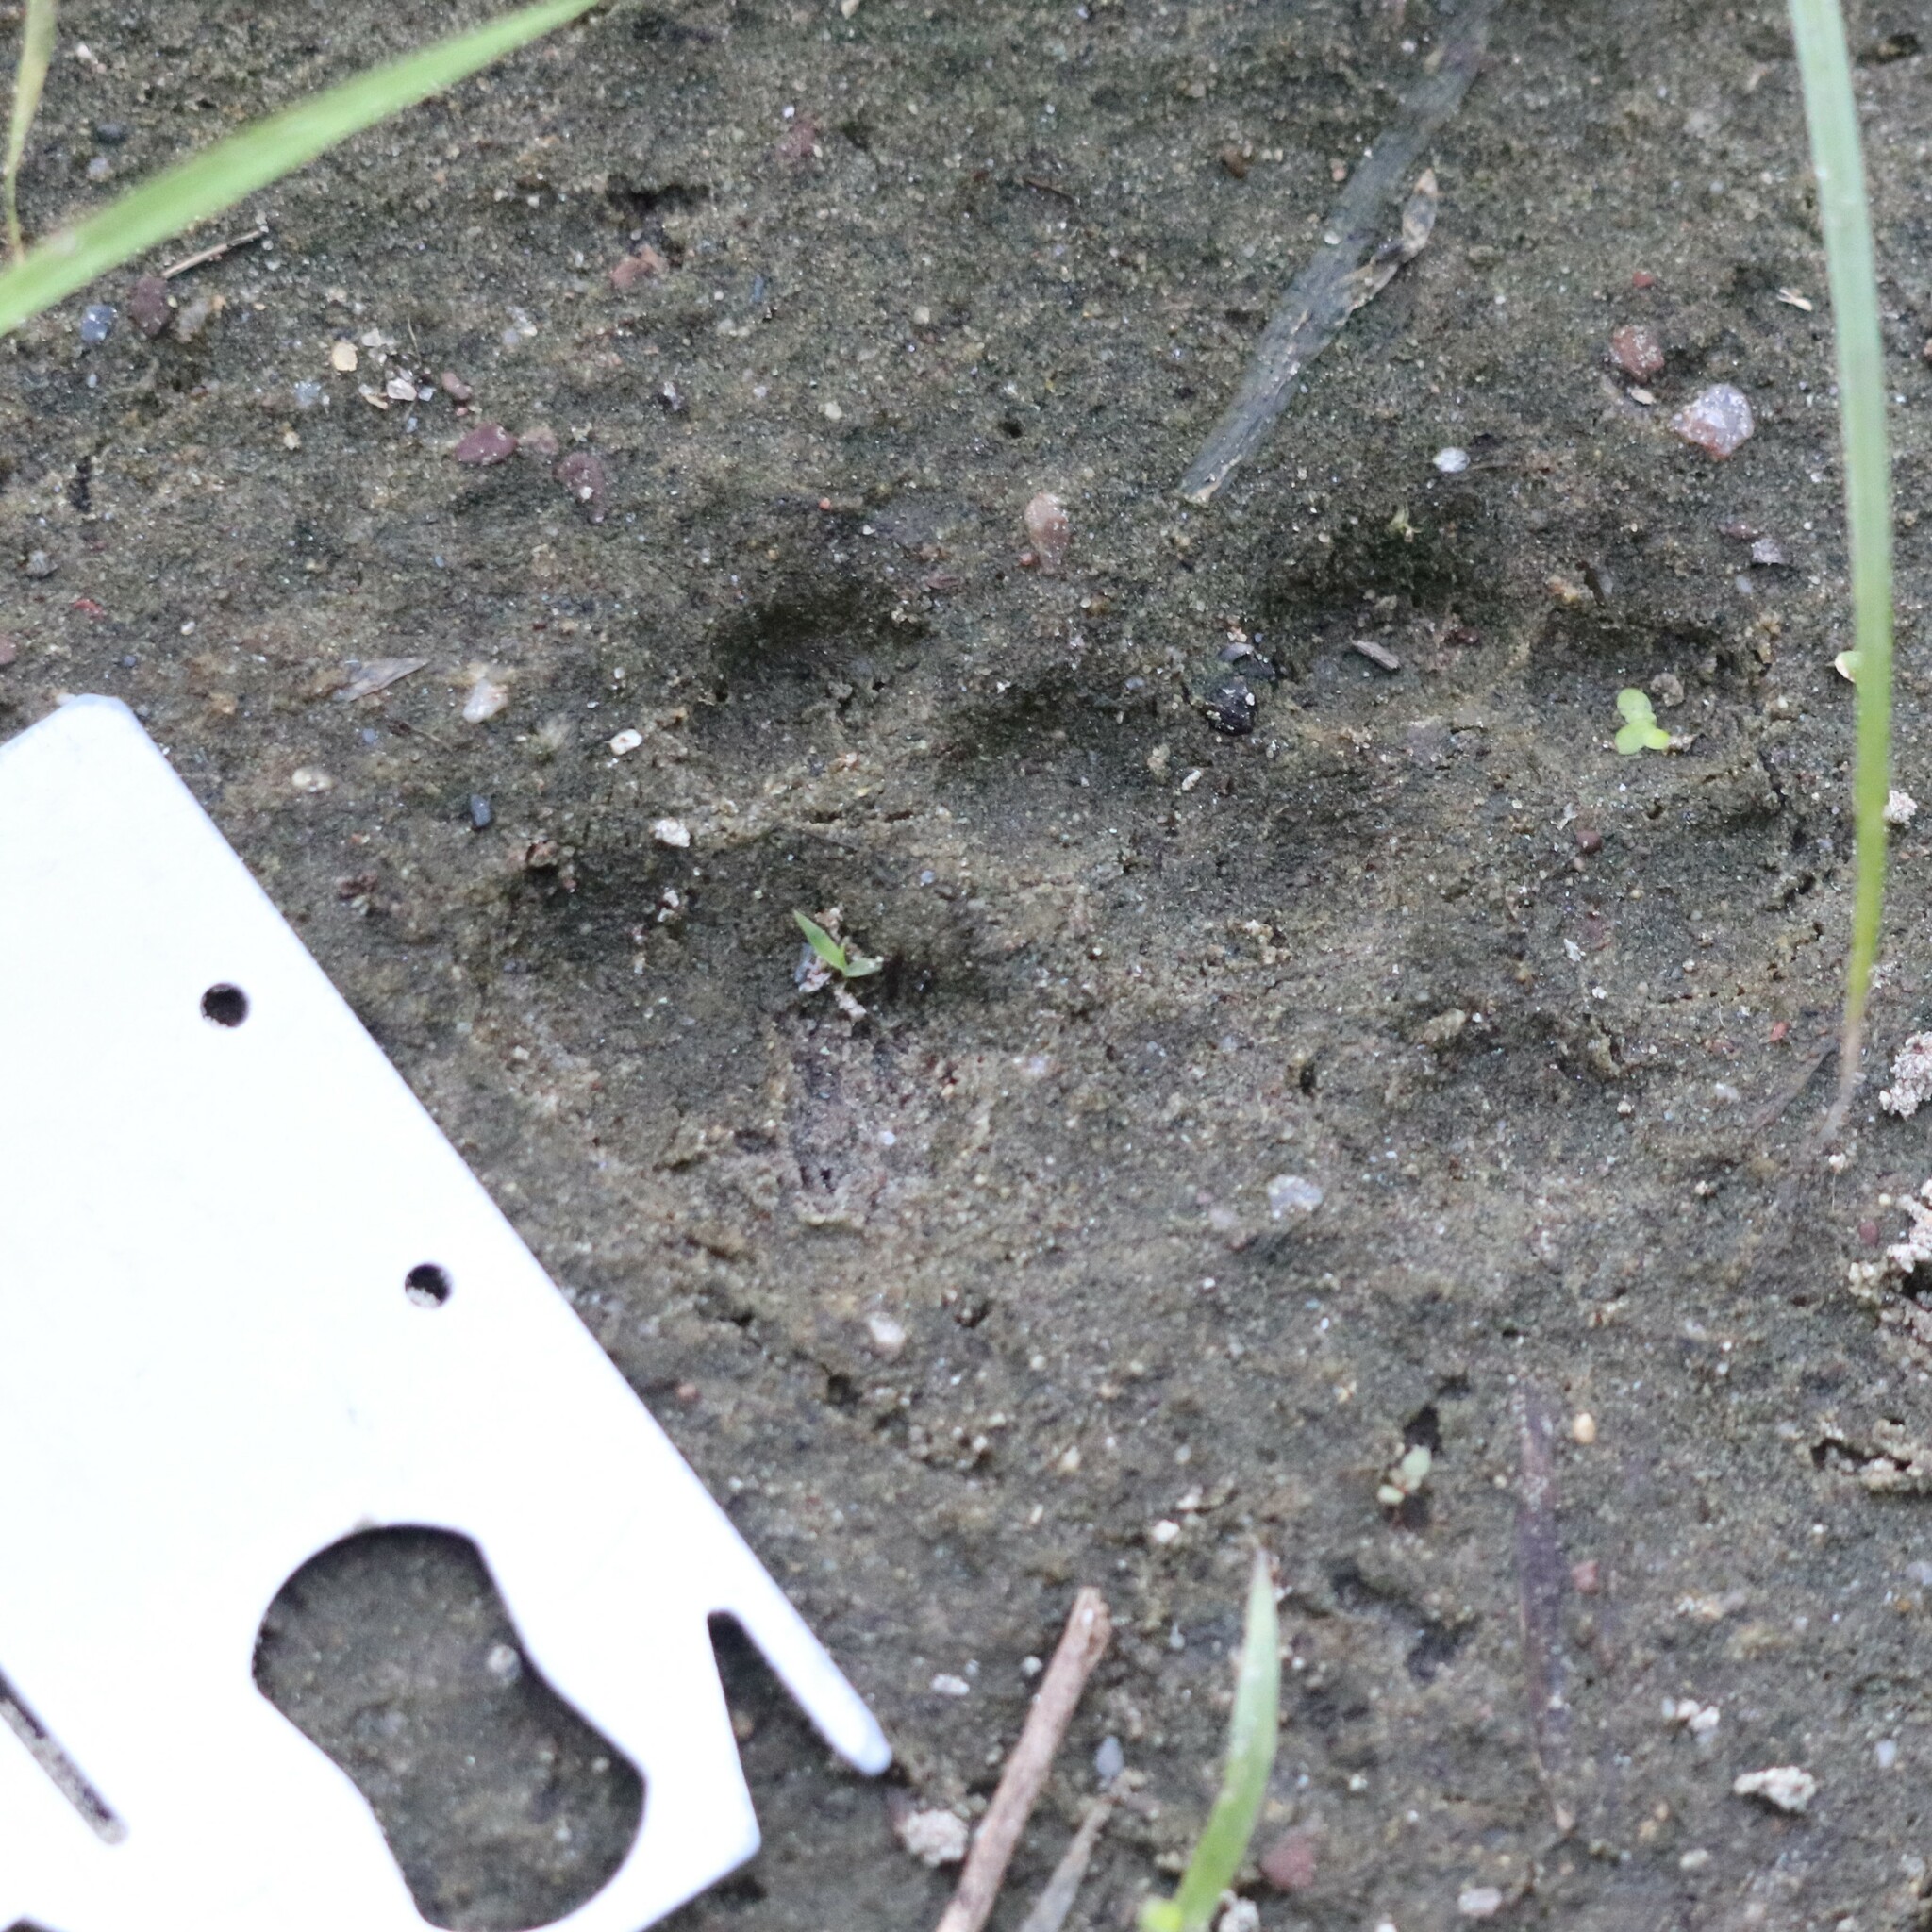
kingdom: Animalia
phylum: Chordata
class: Mammalia
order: Carnivora
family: Felidae
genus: Lynx
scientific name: Lynx rufus
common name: Bobcat
